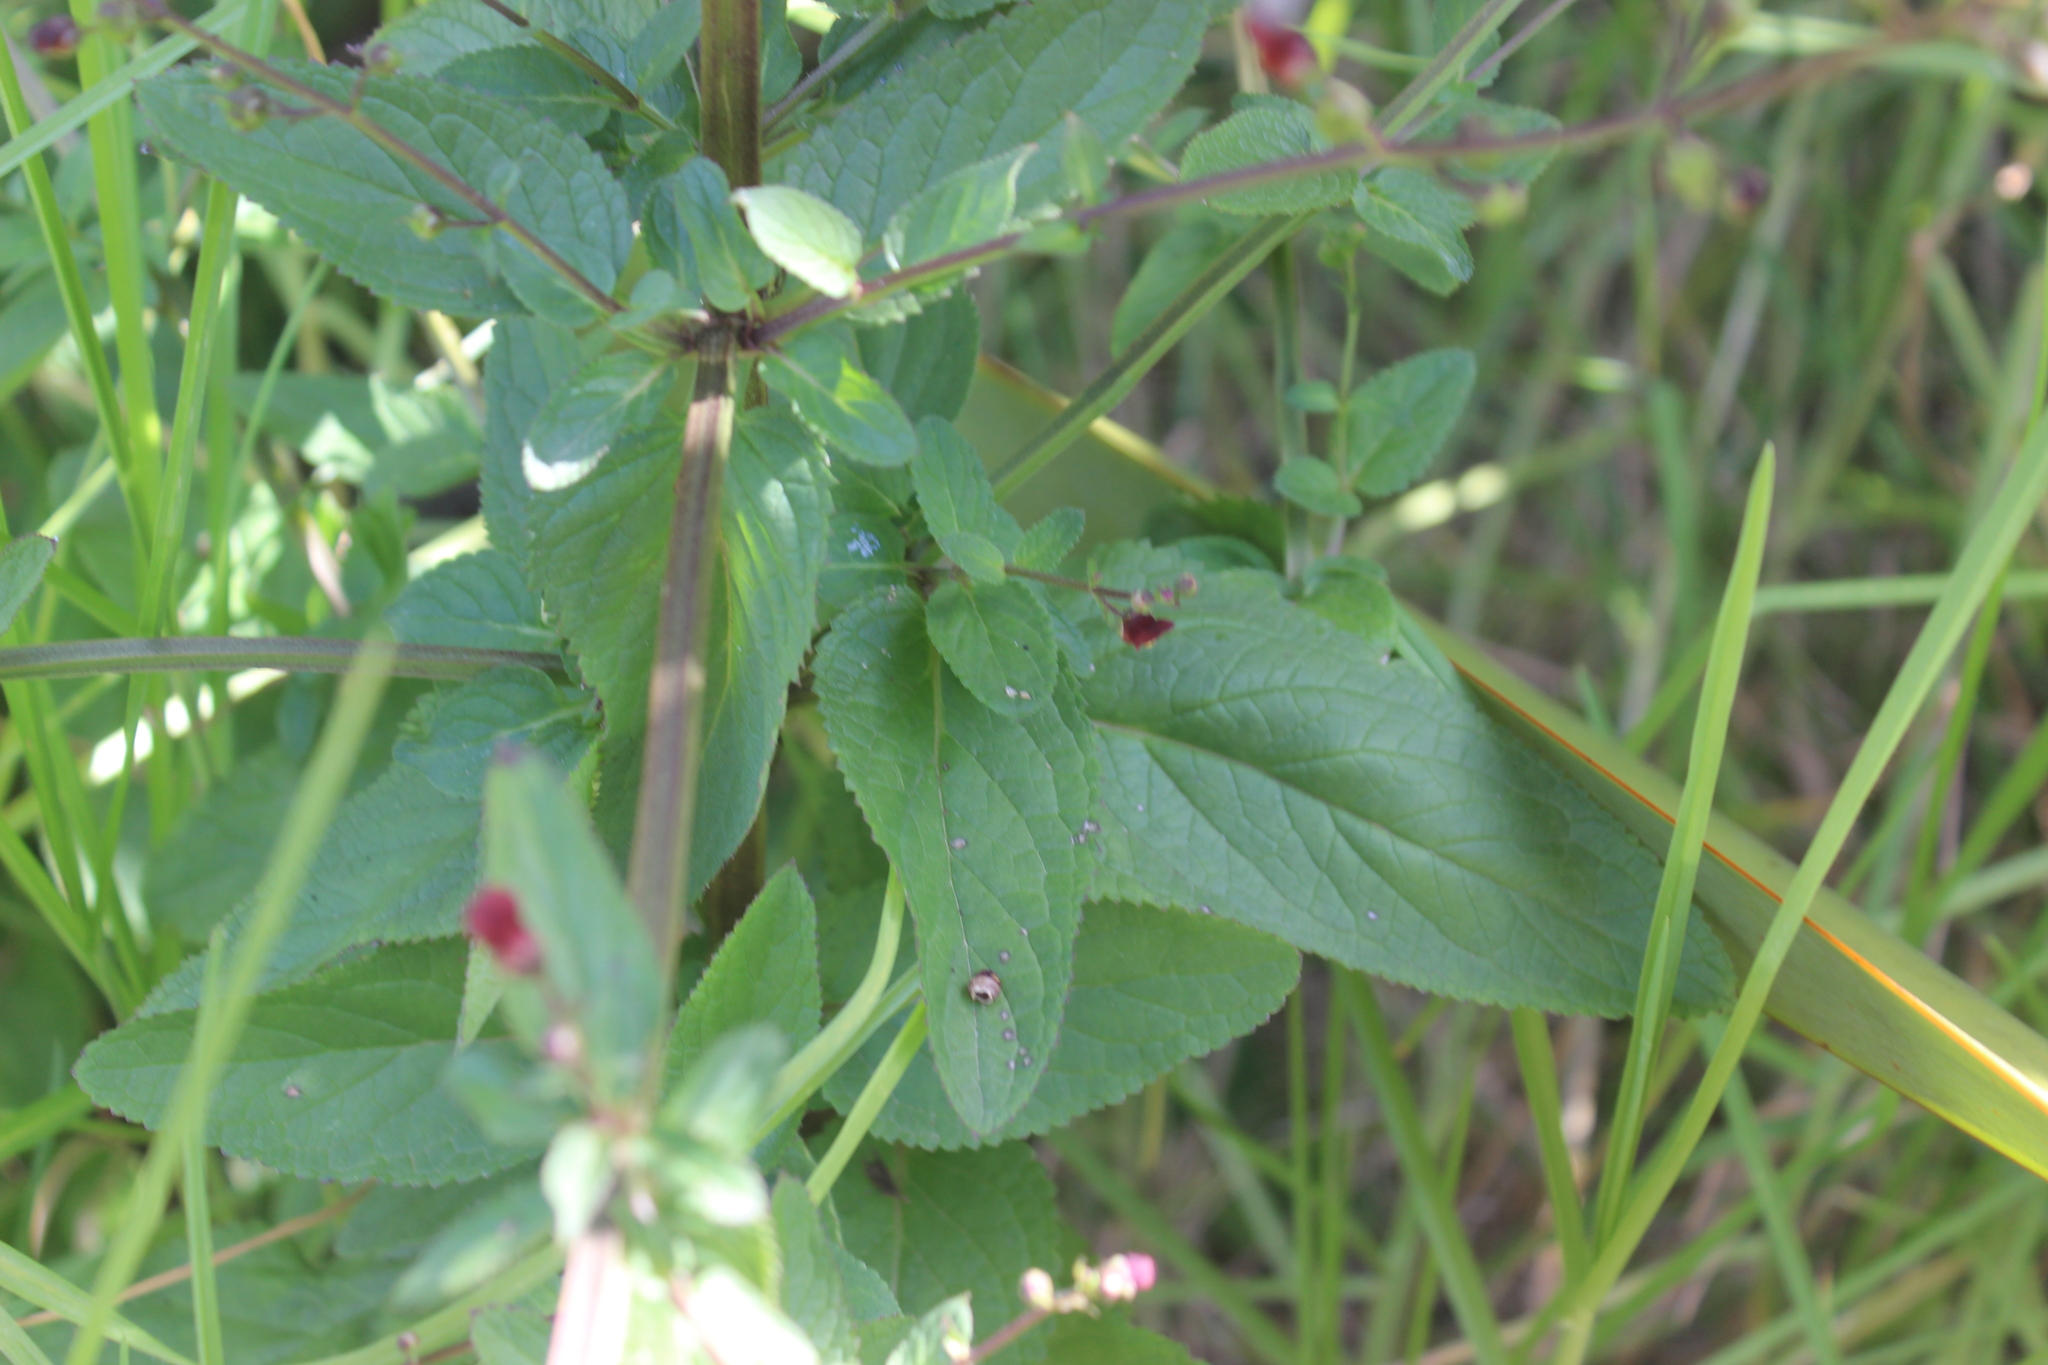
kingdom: Plantae
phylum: Tracheophyta
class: Magnoliopsida
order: Lamiales
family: Scrophulariaceae
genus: Scrophularia
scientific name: Scrophularia auriculata
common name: Water betony
